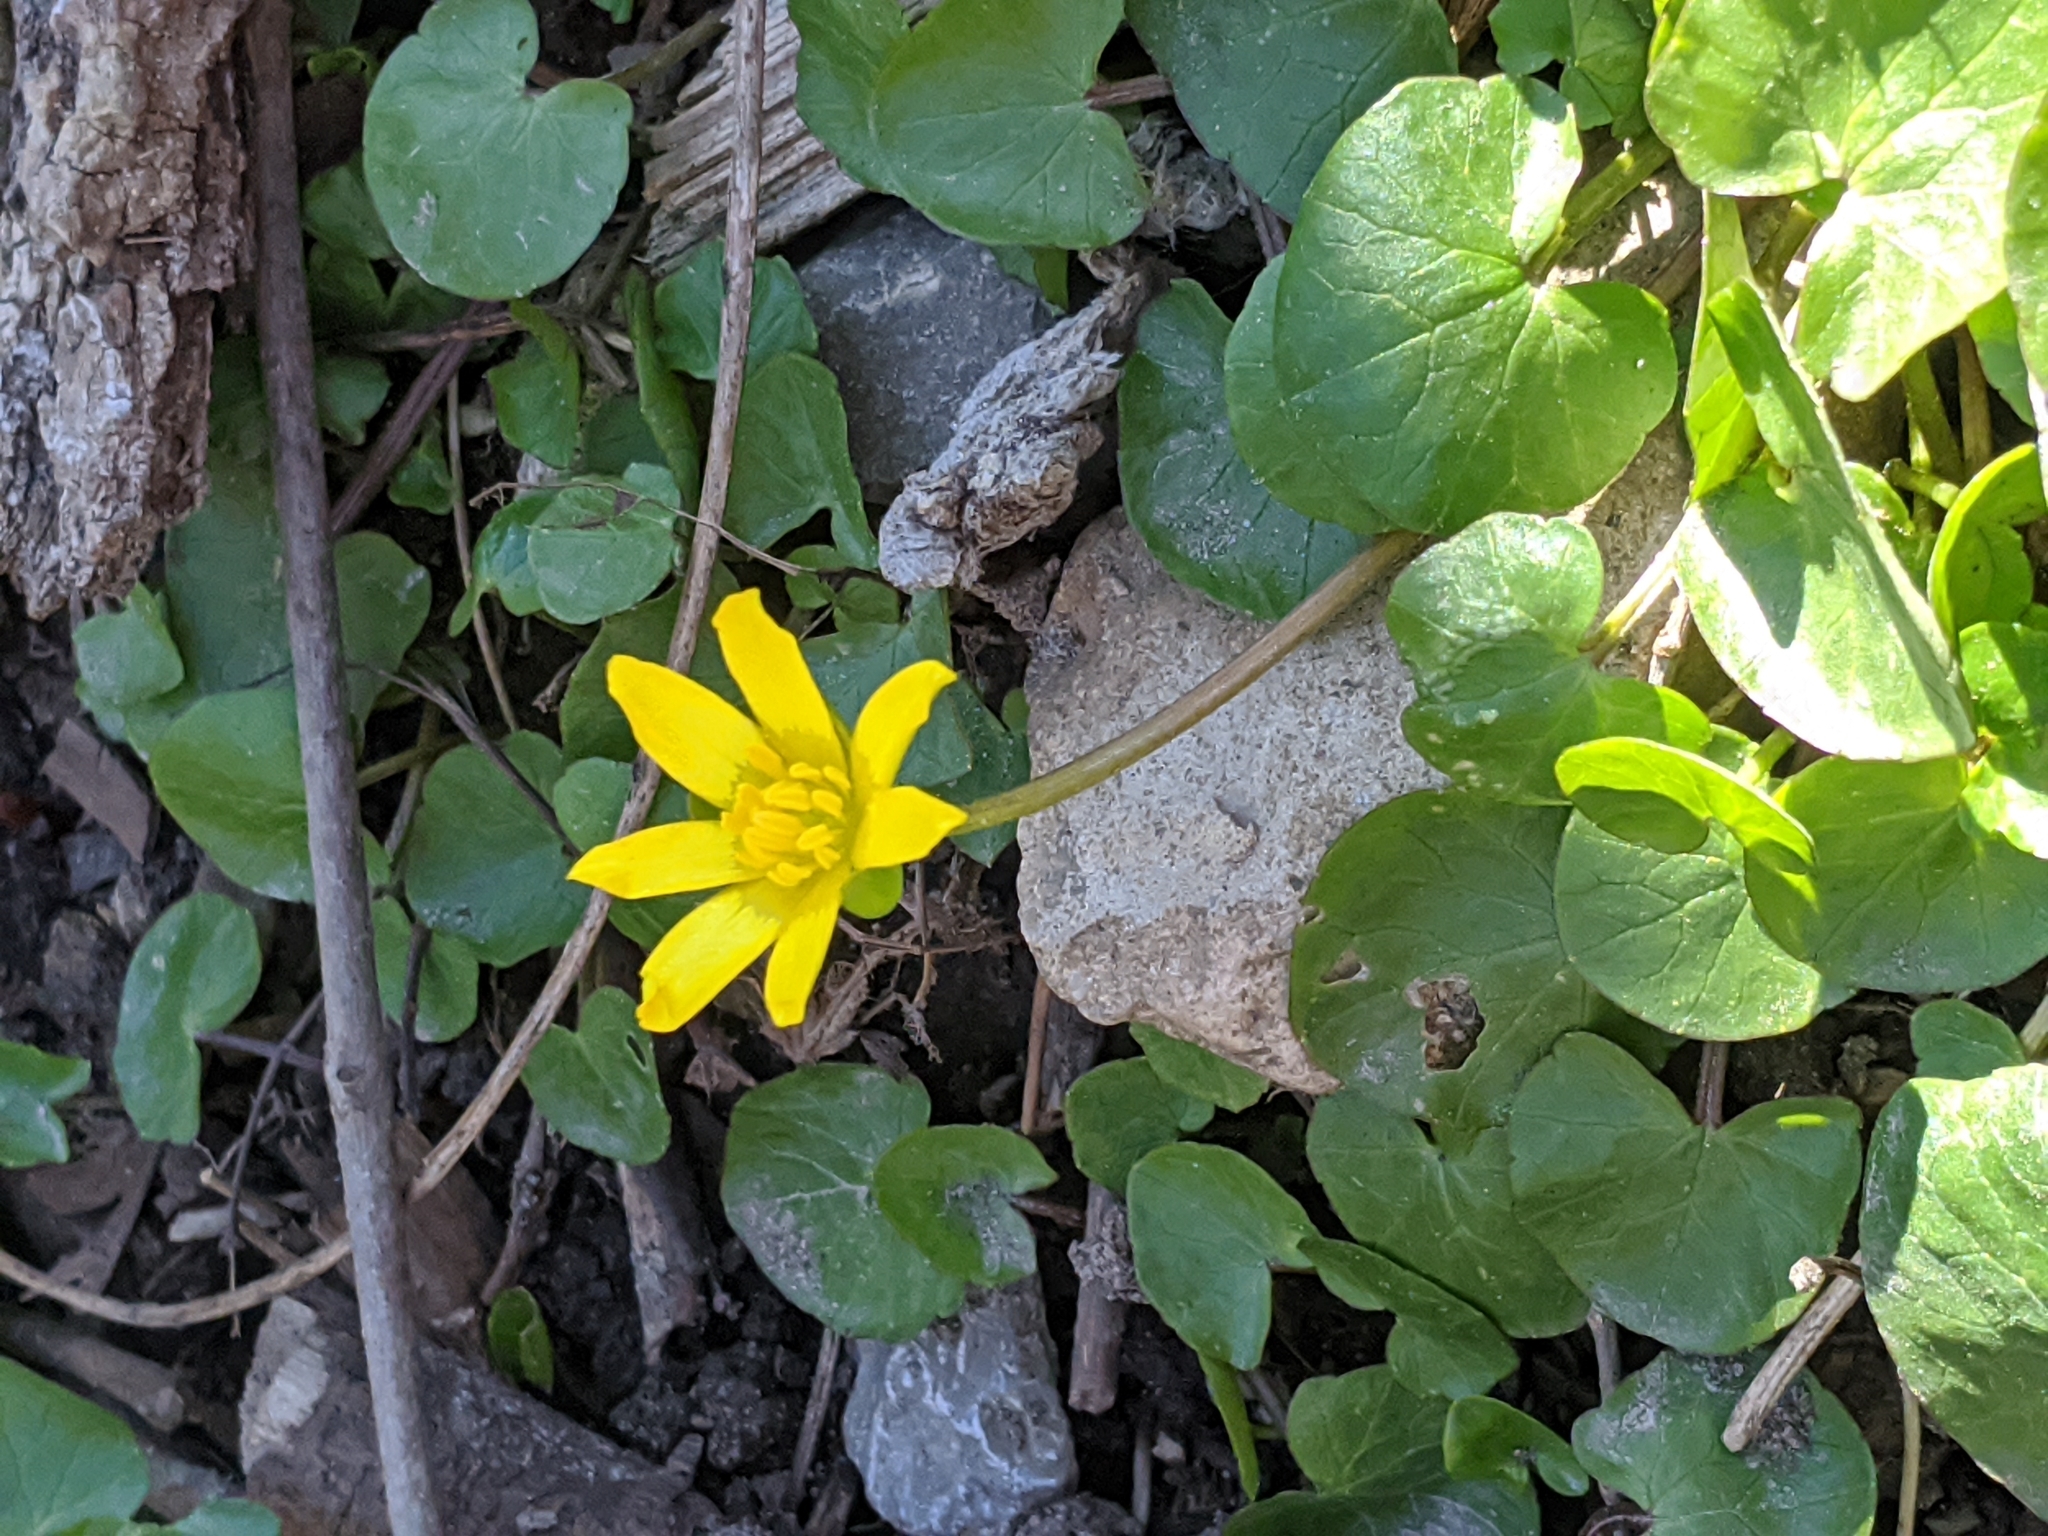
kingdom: Plantae
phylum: Tracheophyta
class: Magnoliopsida
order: Ranunculales
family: Ranunculaceae
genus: Ficaria
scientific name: Ficaria verna
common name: Lesser celandine
